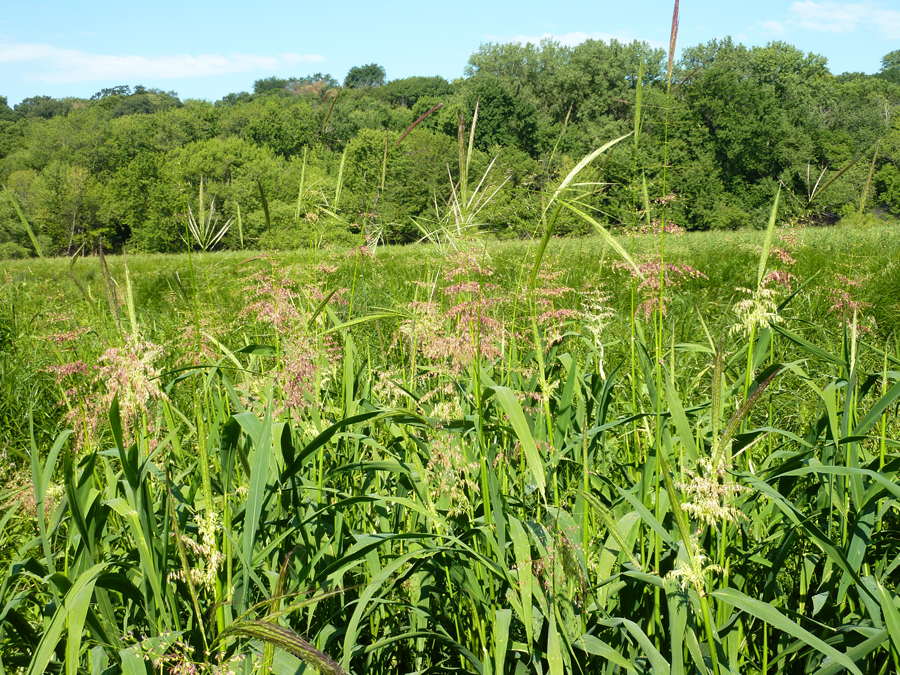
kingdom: Plantae
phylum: Tracheophyta
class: Liliopsida
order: Poales
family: Poaceae
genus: Phalaris
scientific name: Phalaris arundinacea
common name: Reed canary-grass
